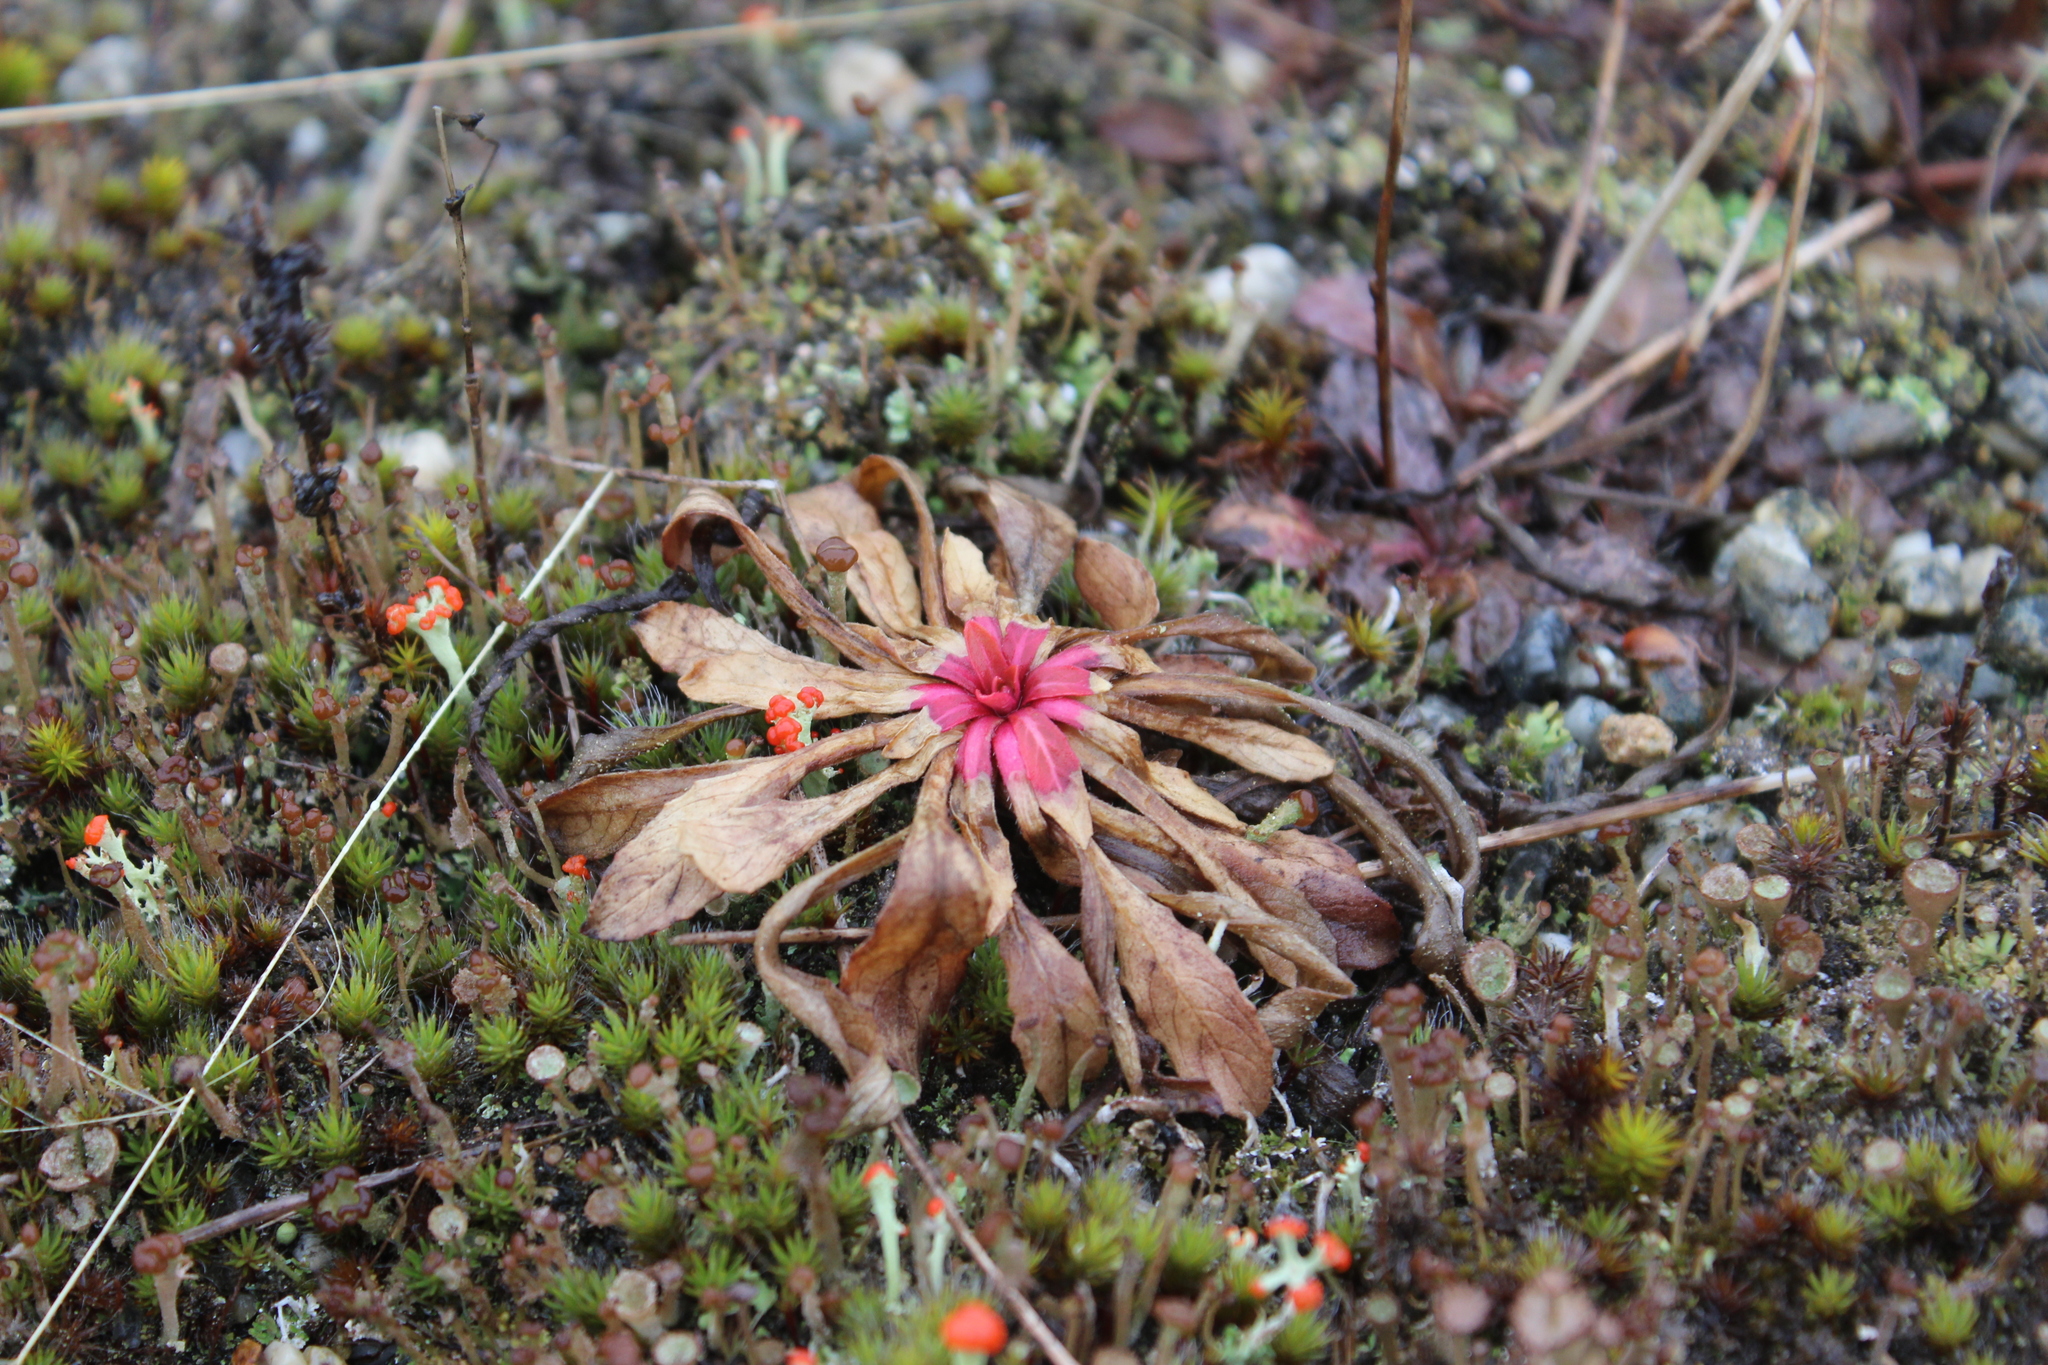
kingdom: Plantae
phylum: Tracheophyta
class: Magnoliopsida
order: Myrtales
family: Onagraceae
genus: Oenothera
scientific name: Oenothera biennis
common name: Common evening-primrose
